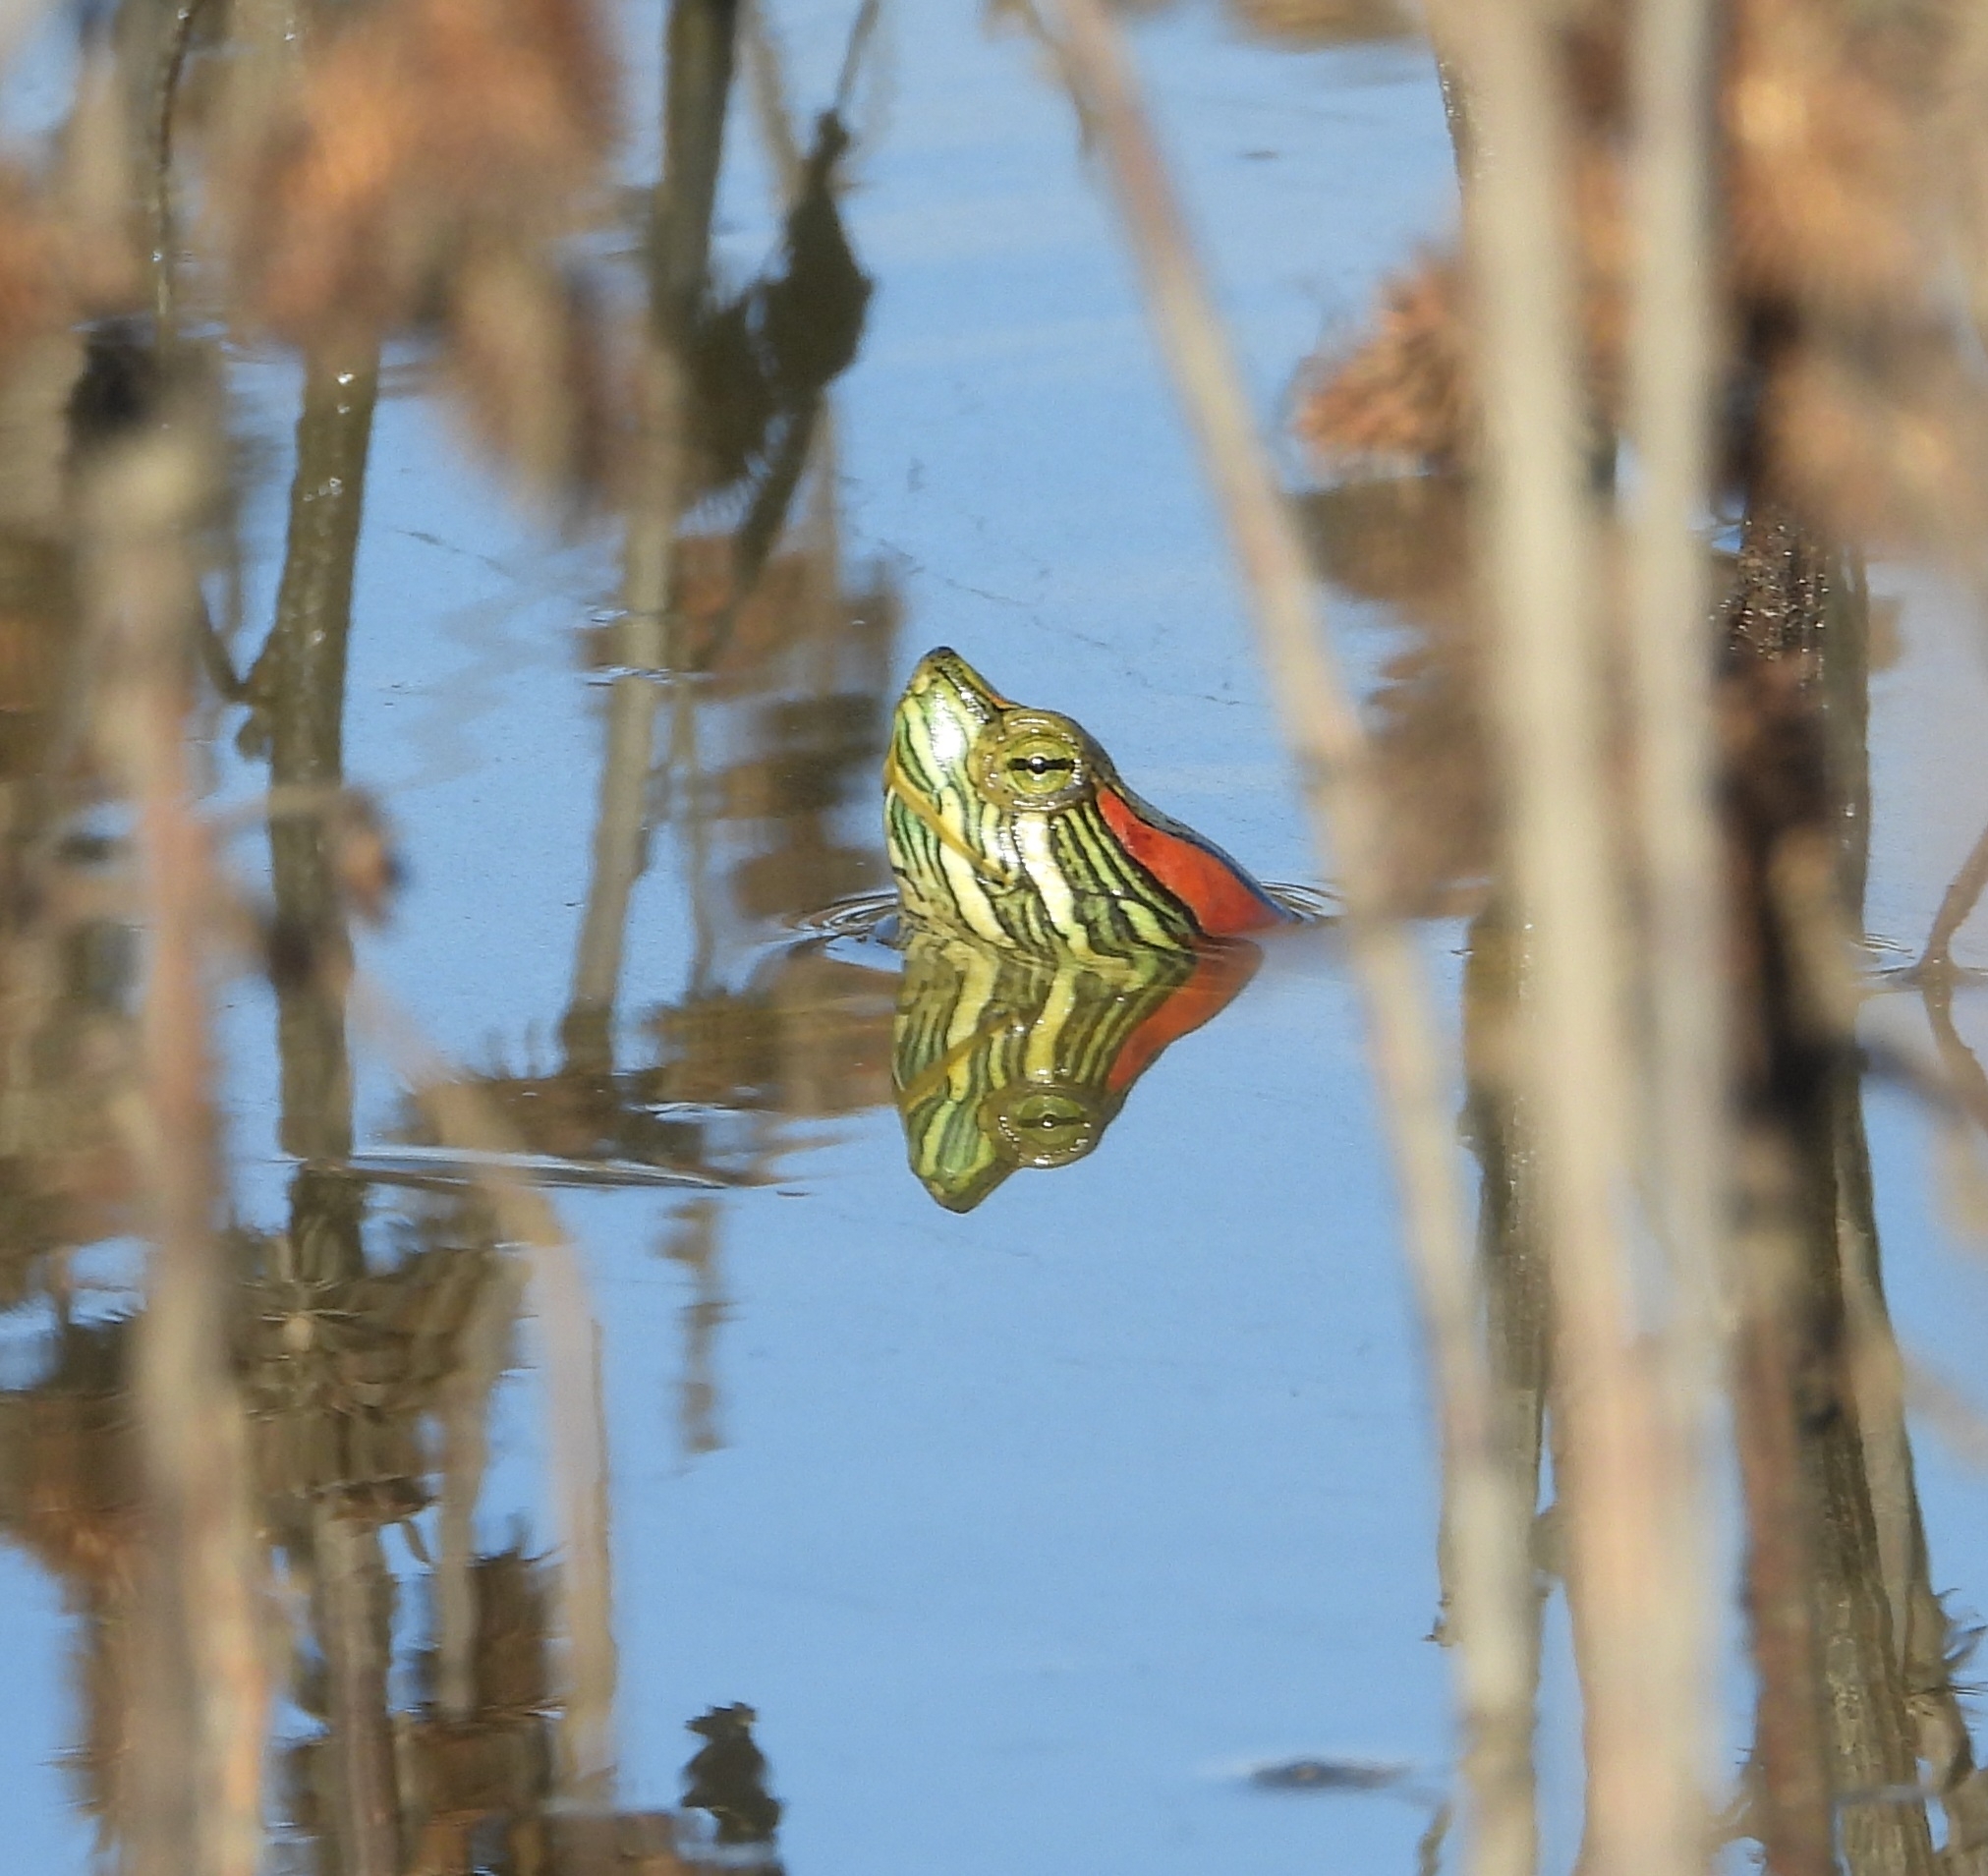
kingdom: Animalia
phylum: Chordata
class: Testudines
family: Emydidae
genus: Trachemys
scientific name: Trachemys scripta
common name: Slider
